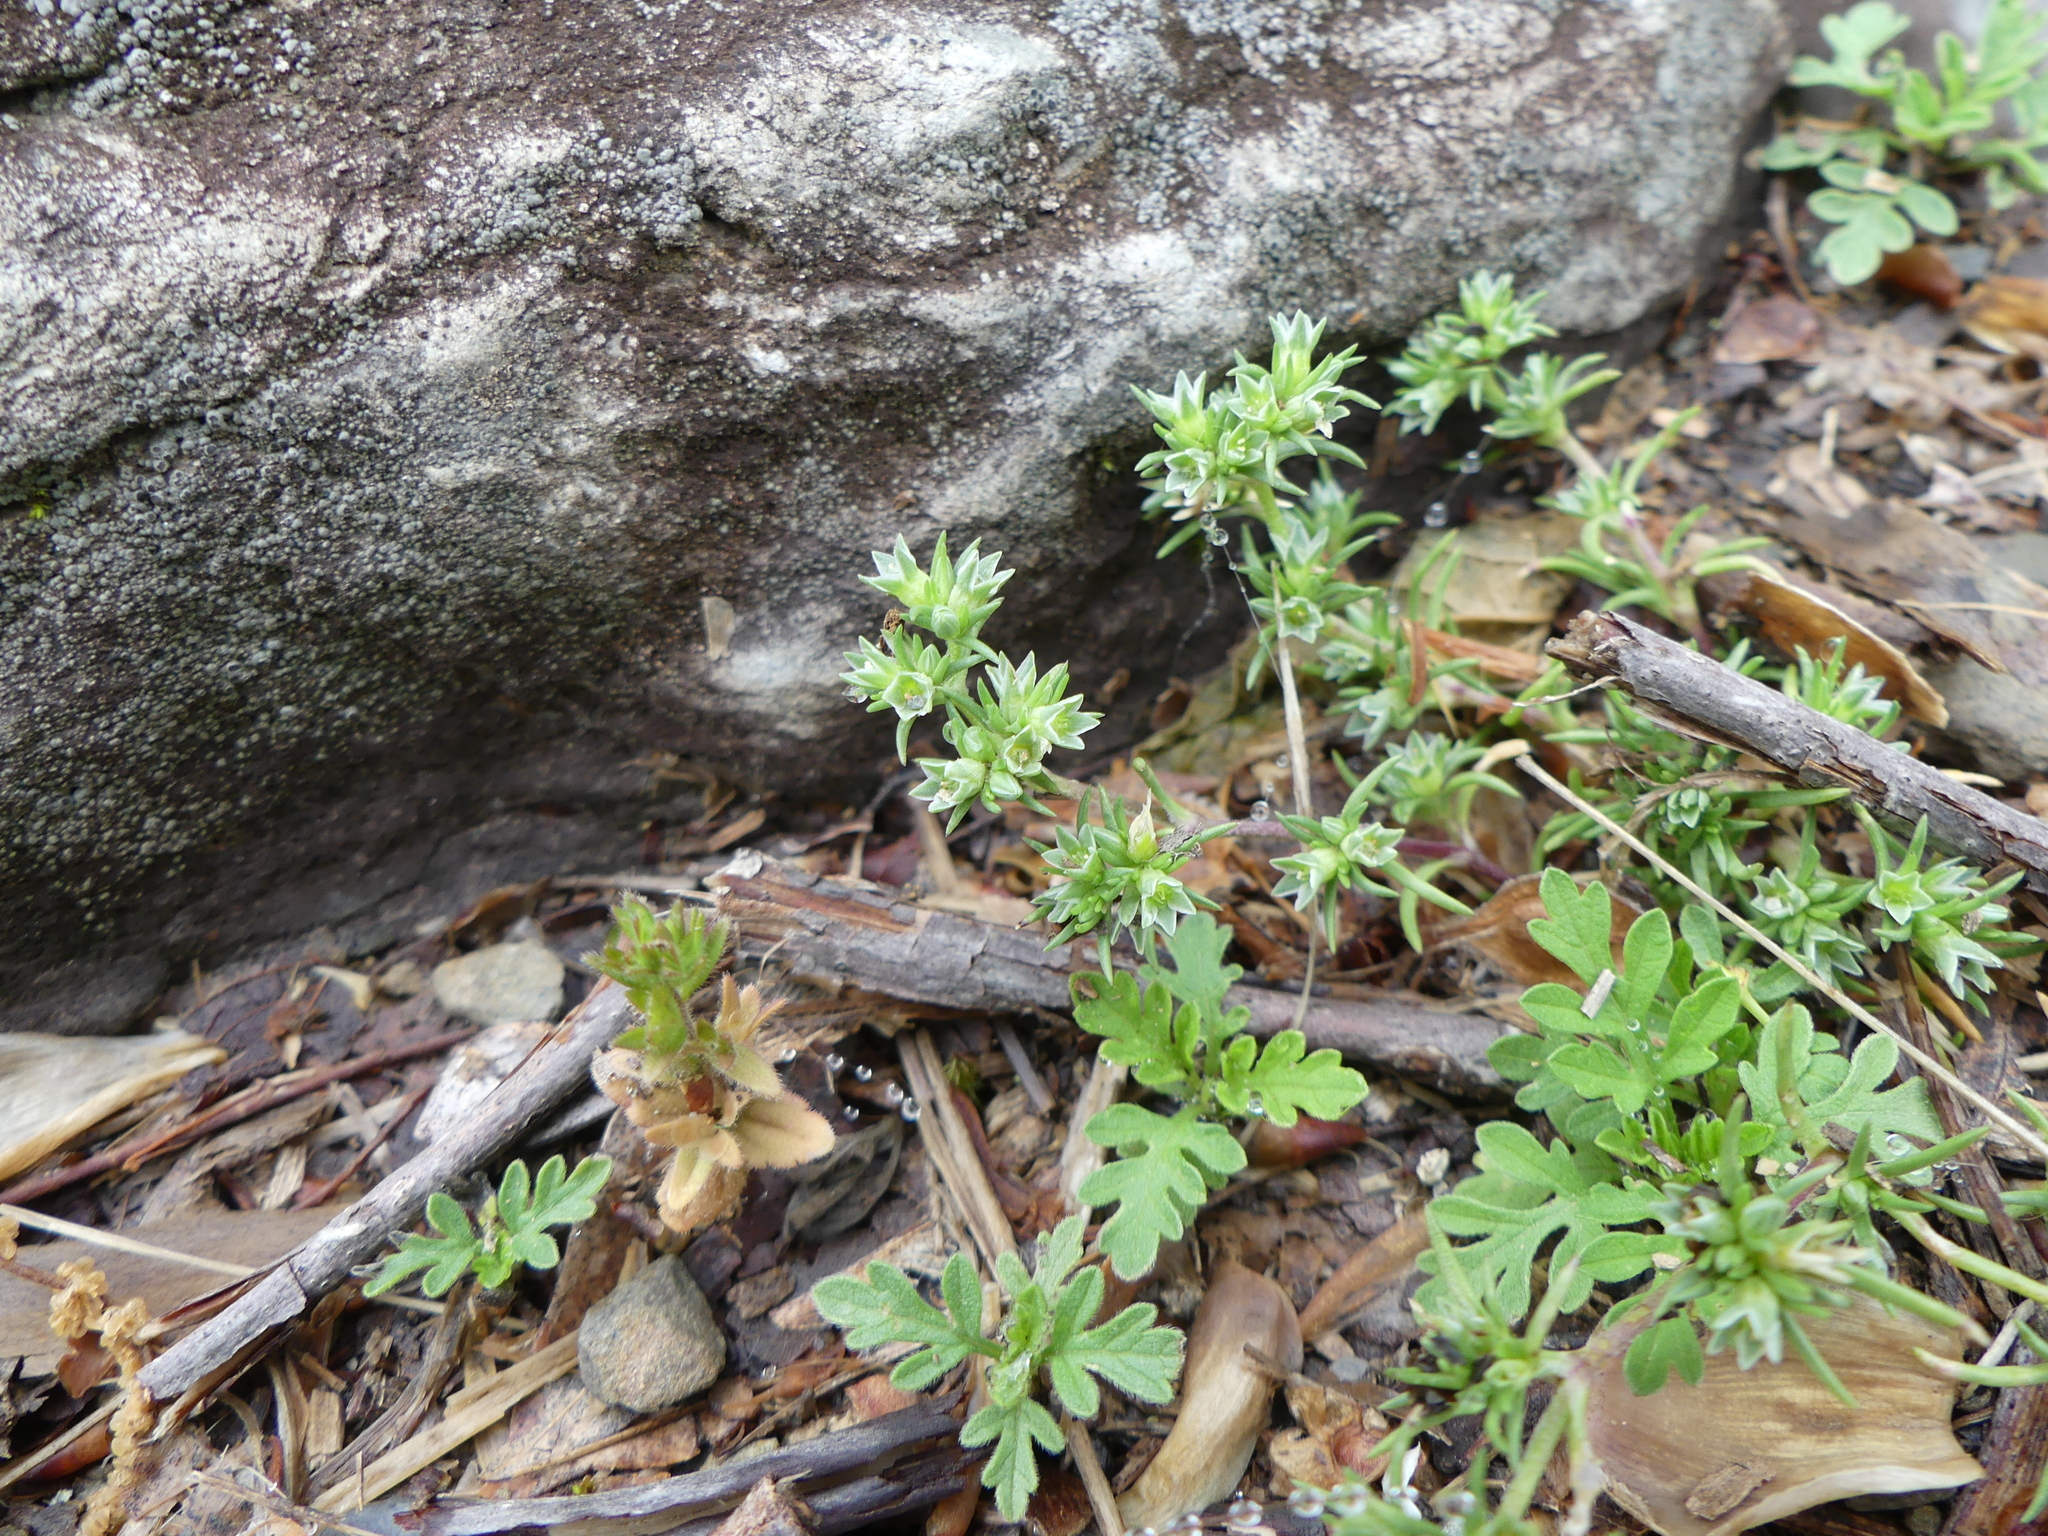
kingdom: Plantae
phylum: Tracheophyta
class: Magnoliopsida
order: Caryophyllales
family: Caryophyllaceae
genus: Scleranthus
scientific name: Scleranthus annuus
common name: Annual knawel
